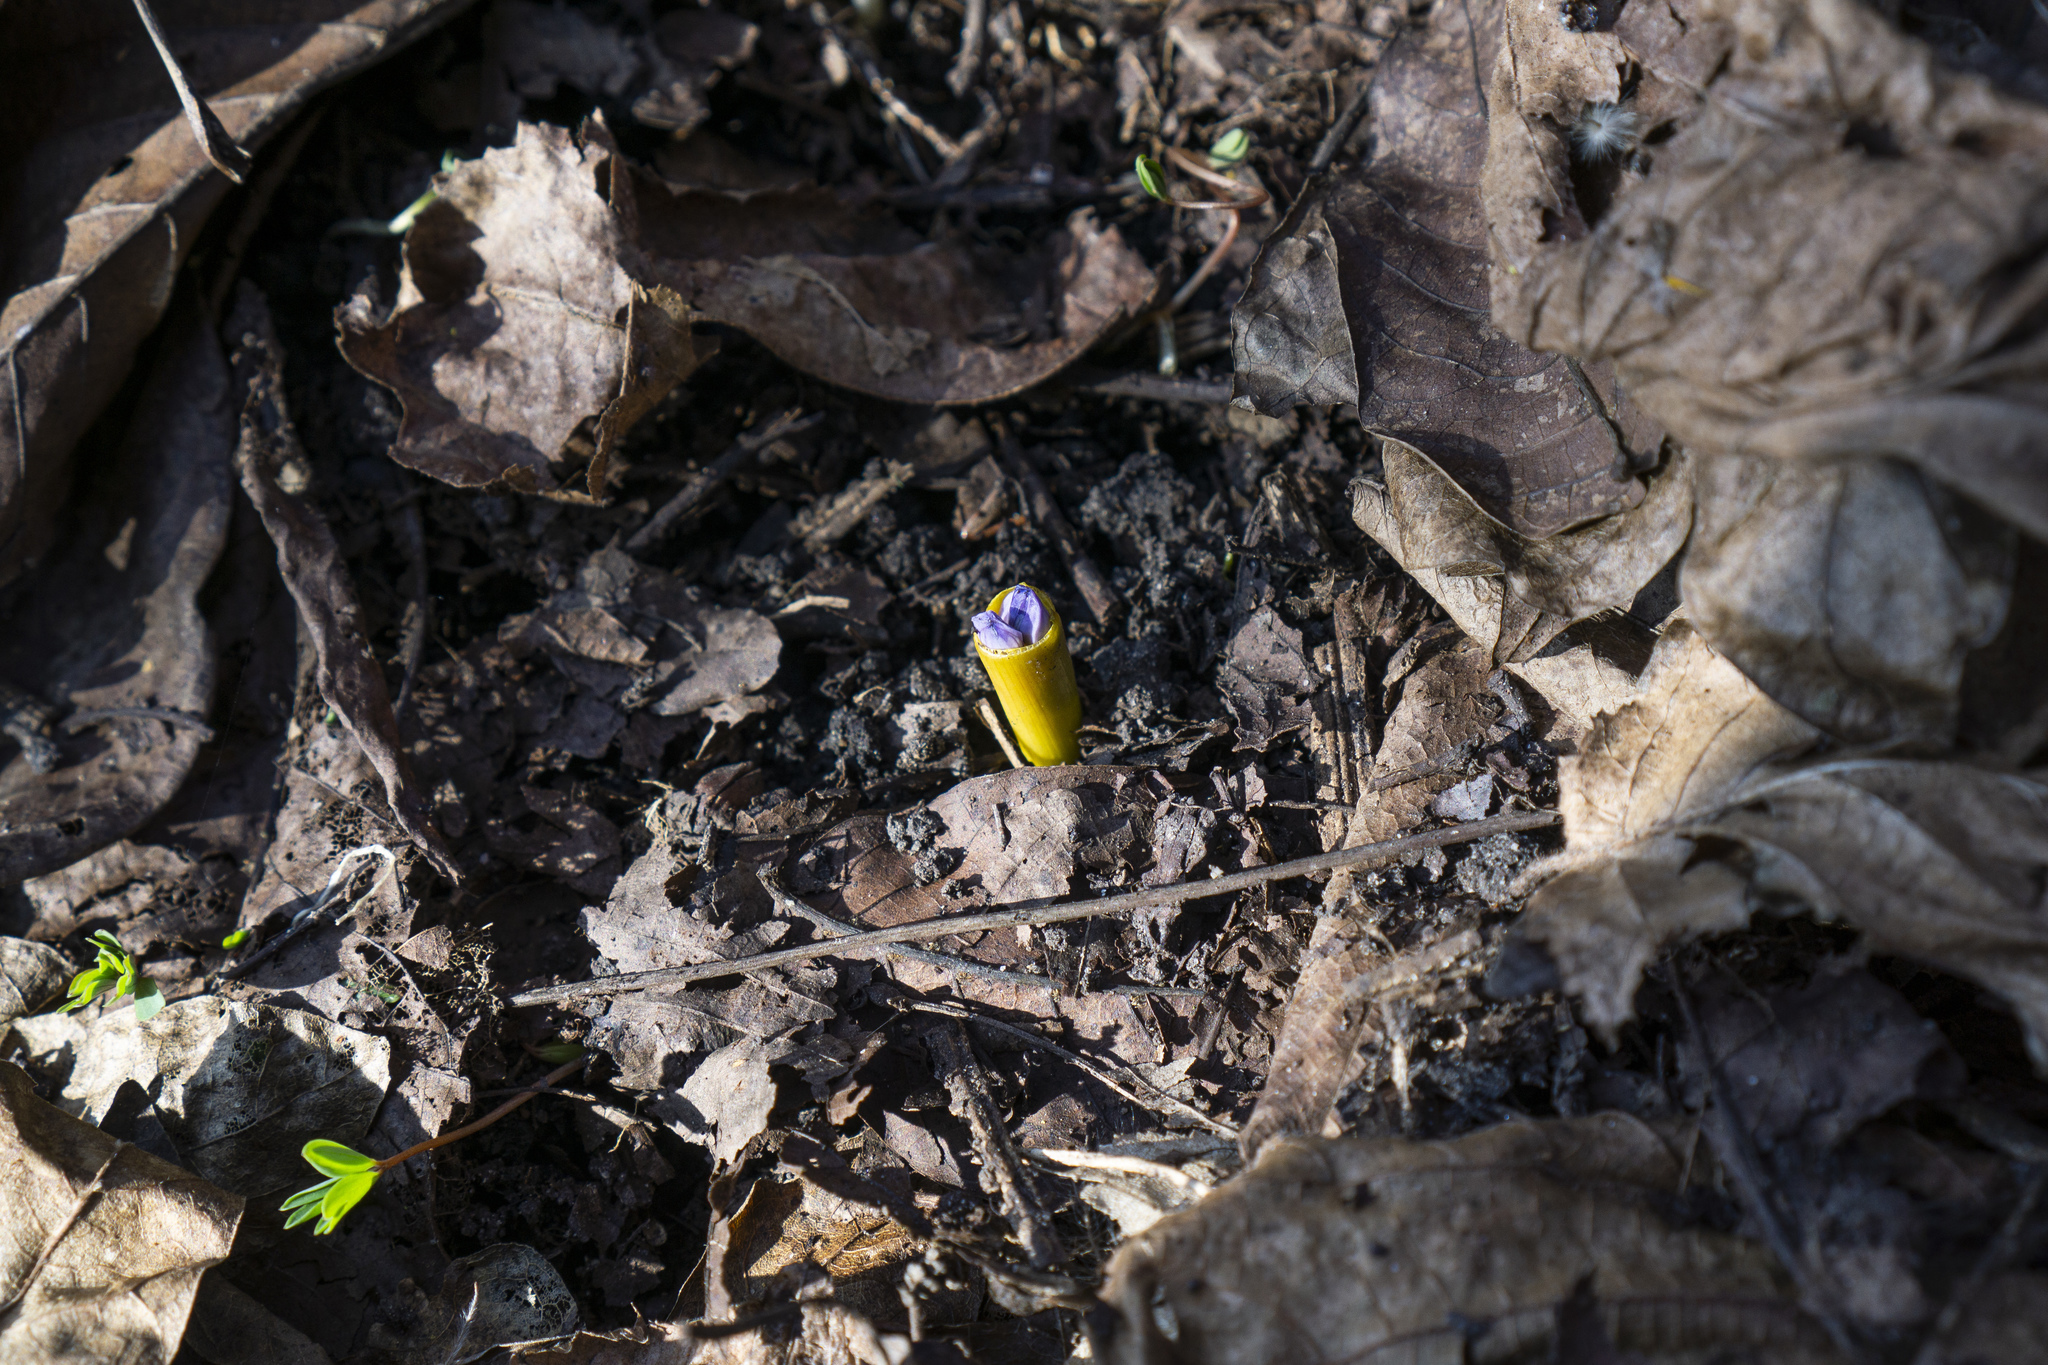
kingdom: Plantae
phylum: Tracheophyta
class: Liliopsida
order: Asparagales
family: Asparagaceae
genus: Scilla
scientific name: Scilla bifolia
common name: Alpine squill
